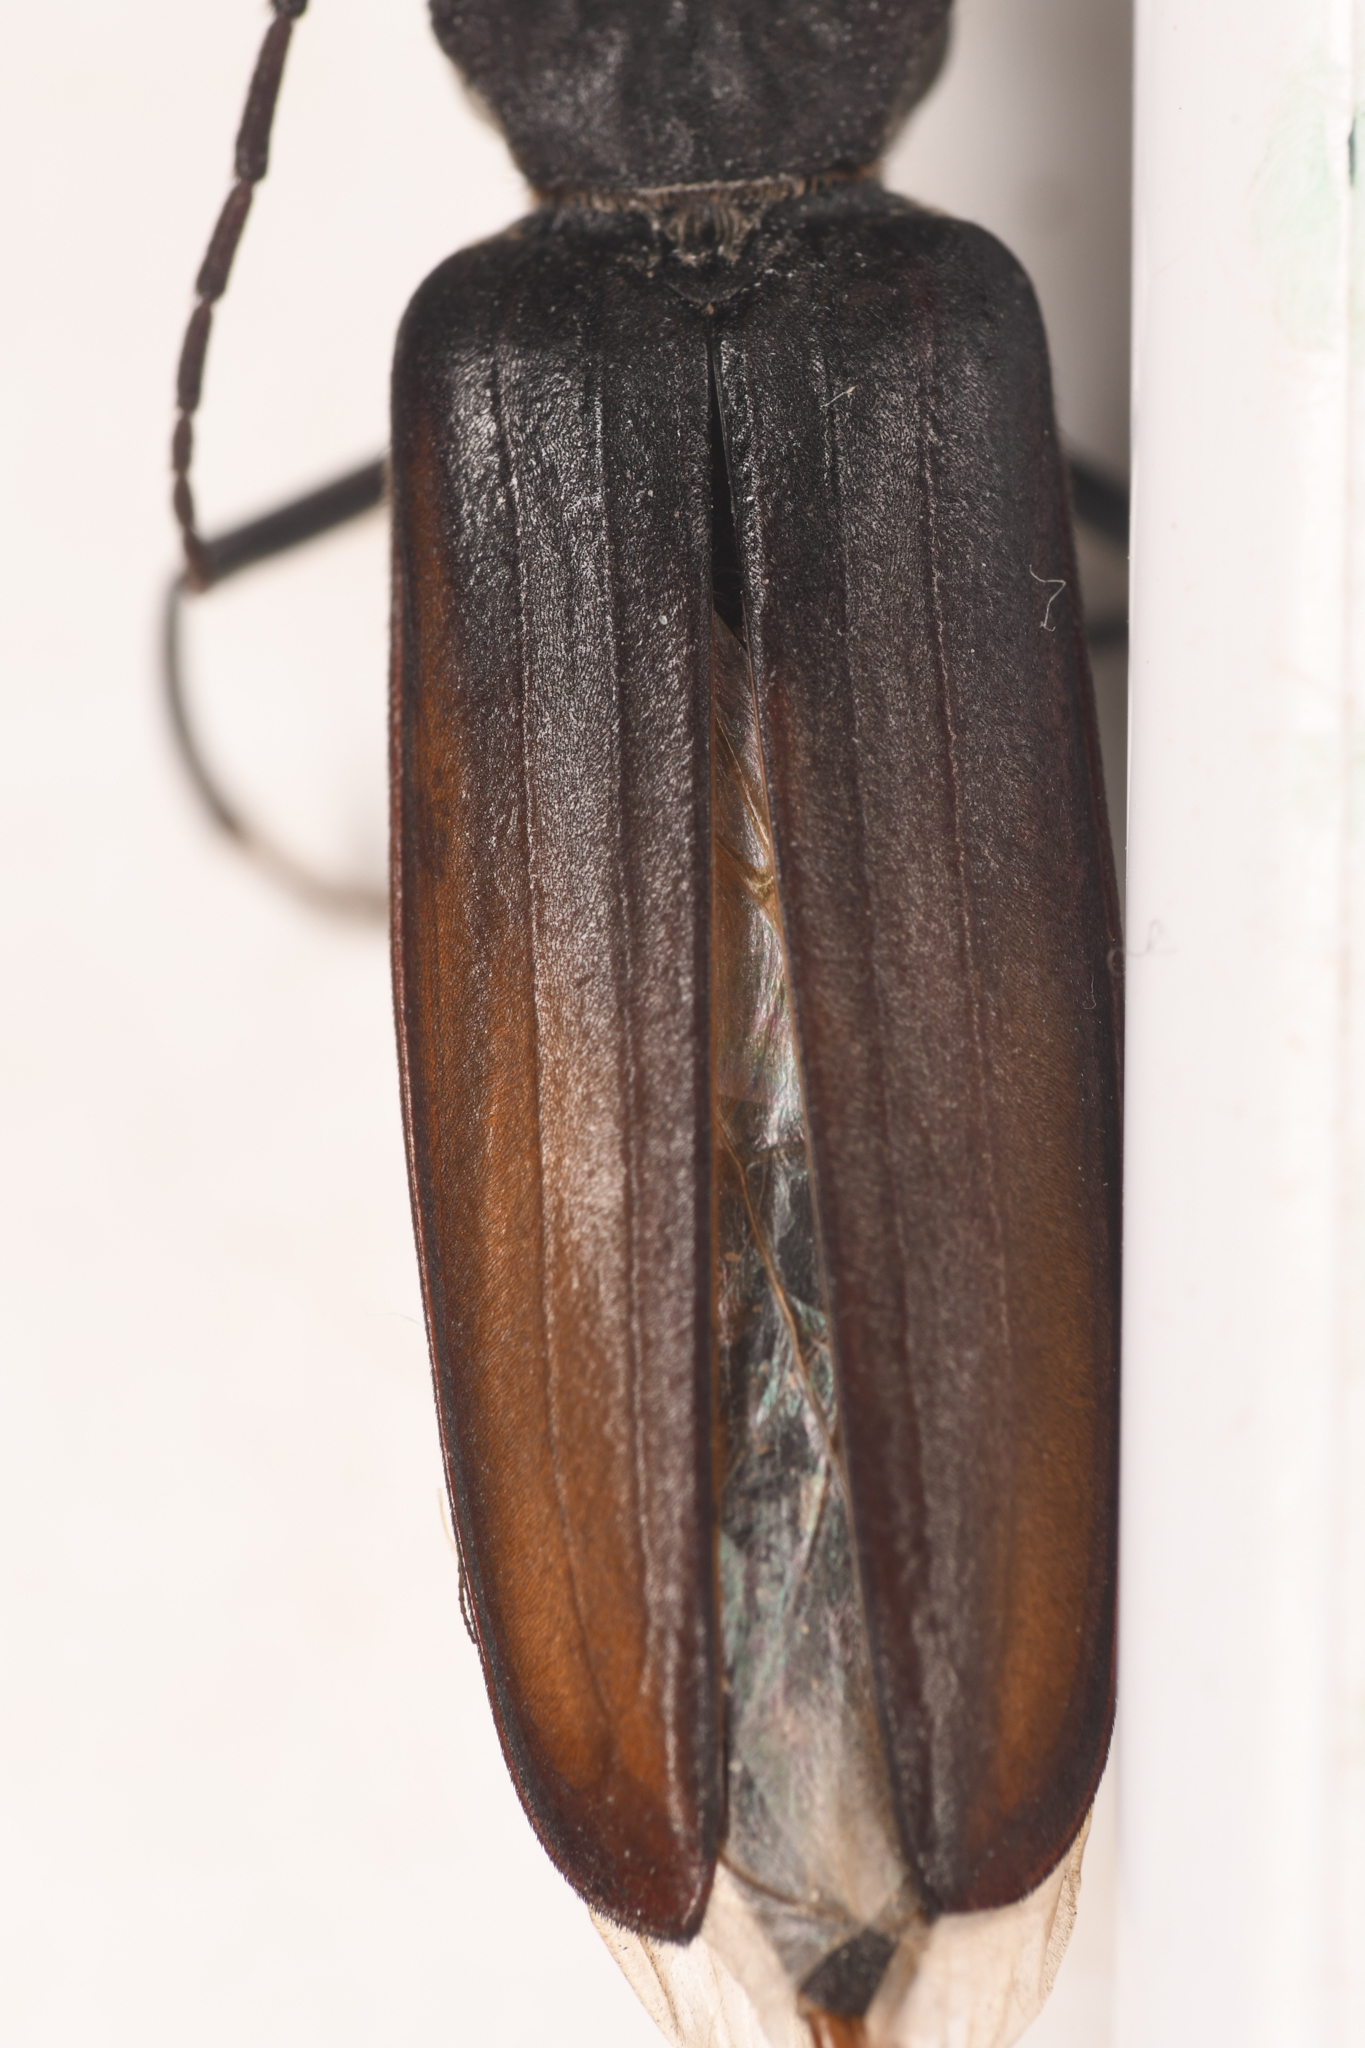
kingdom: Animalia
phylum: Arthropoda
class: Insecta
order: Coleoptera
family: Cerambycidae
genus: Arhopalus
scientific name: Arhopalus asperatus
